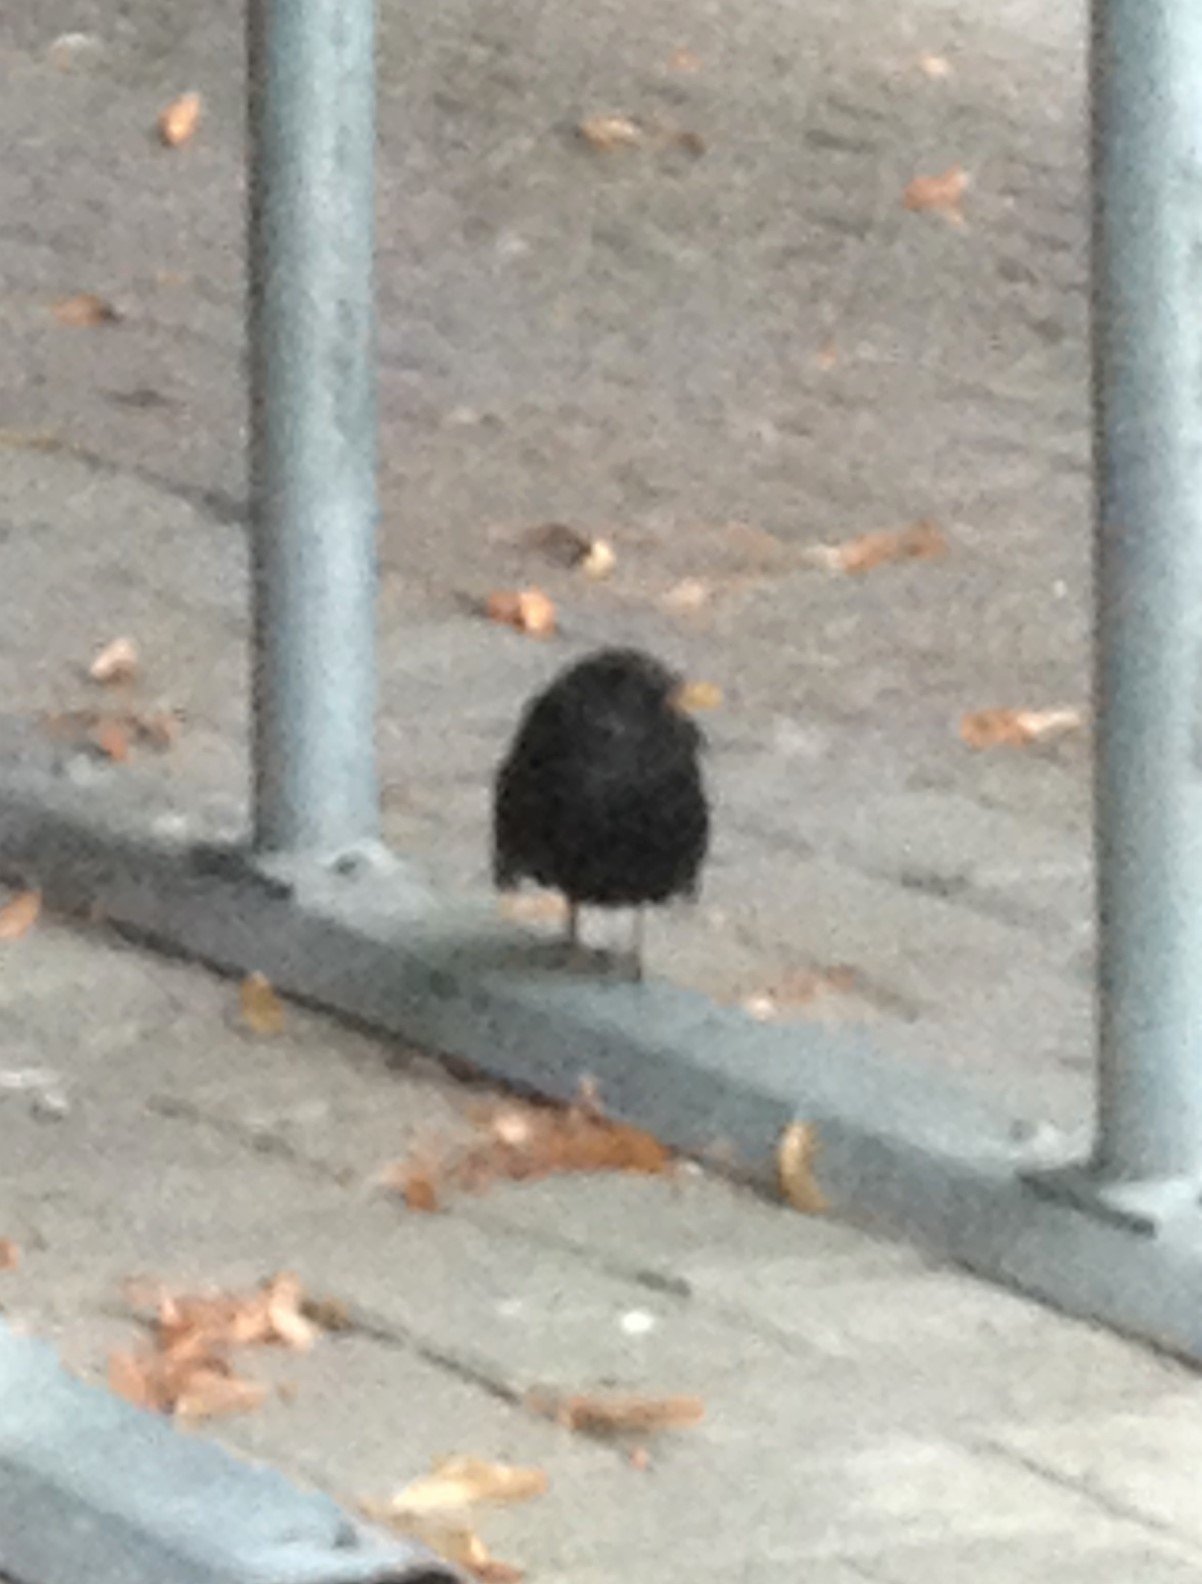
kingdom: Animalia
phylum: Chordata
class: Aves
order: Passeriformes
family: Turdidae
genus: Turdus
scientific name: Turdus merula
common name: Common blackbird
